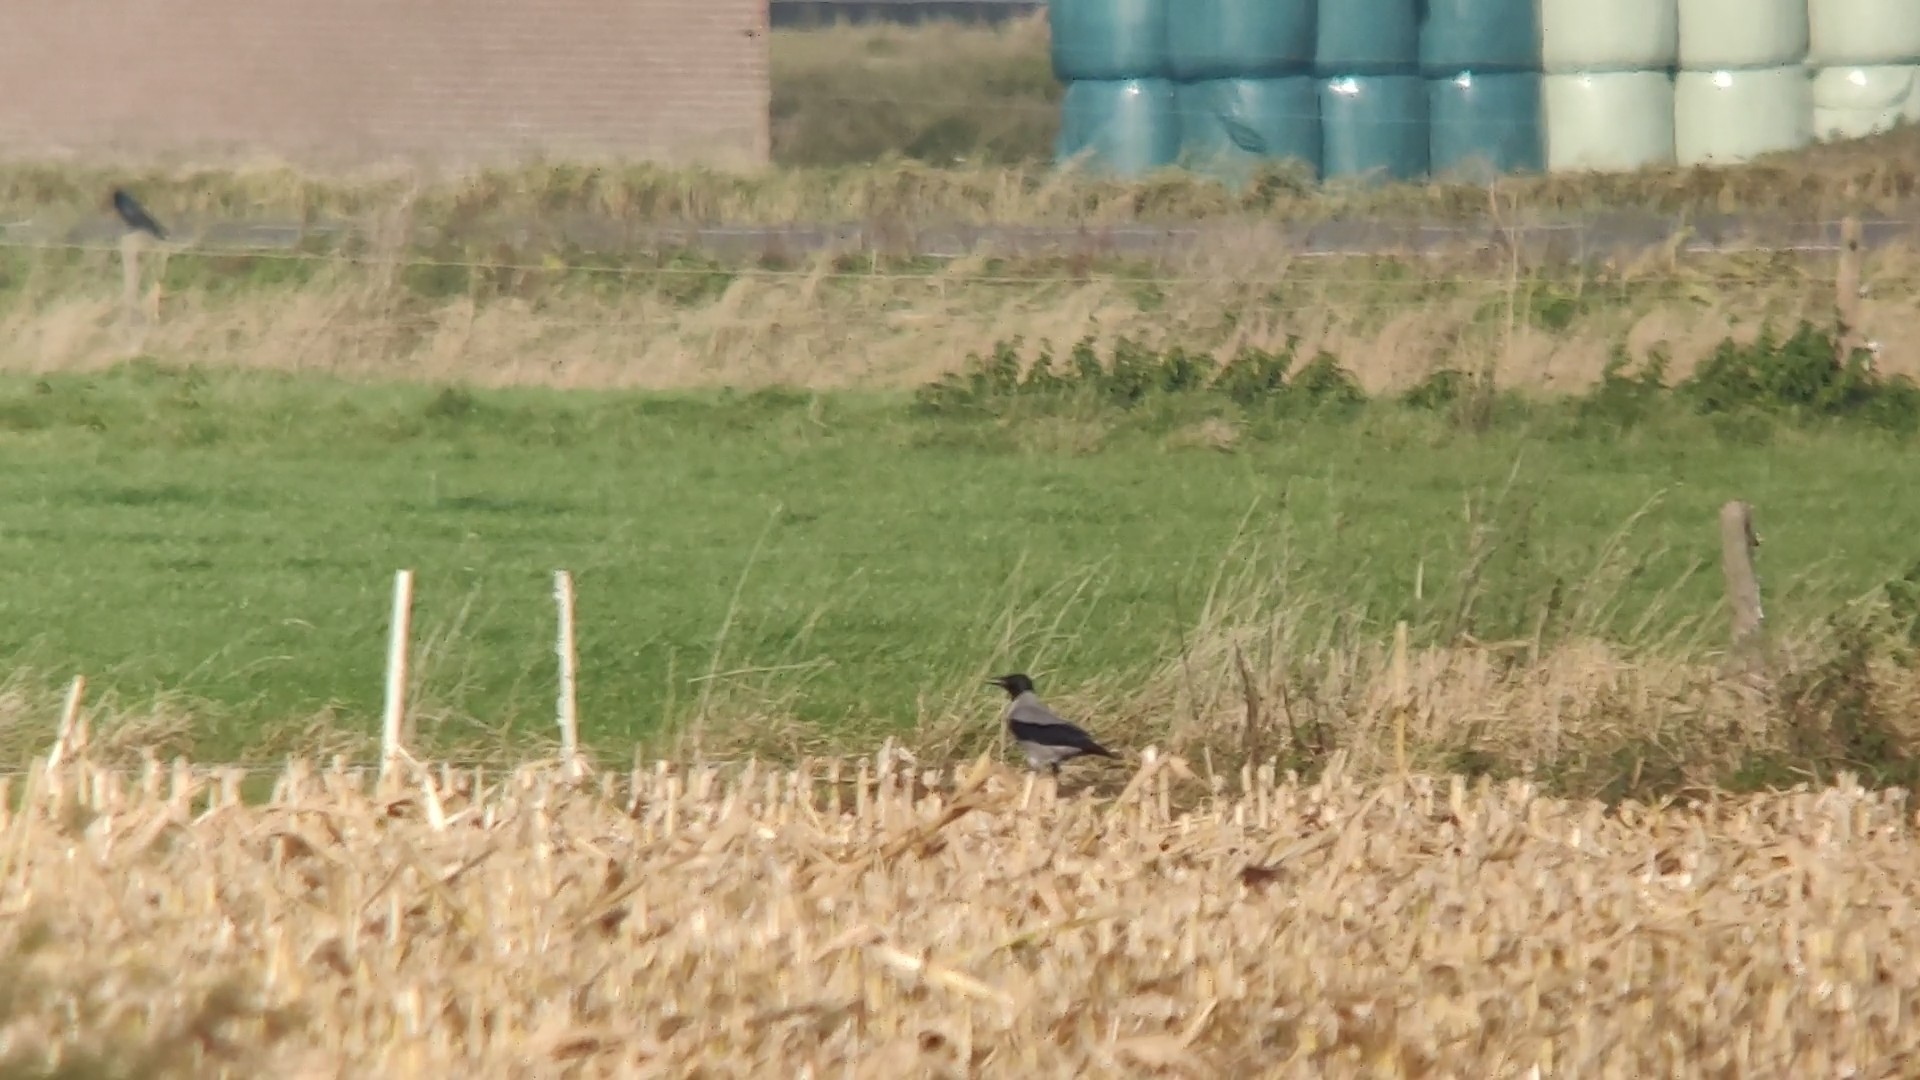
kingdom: Animalia
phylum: Chordata
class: Aves
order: Passeriformes
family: Corvidae
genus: Corvus
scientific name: Corvus cornix
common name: Hooded crow
